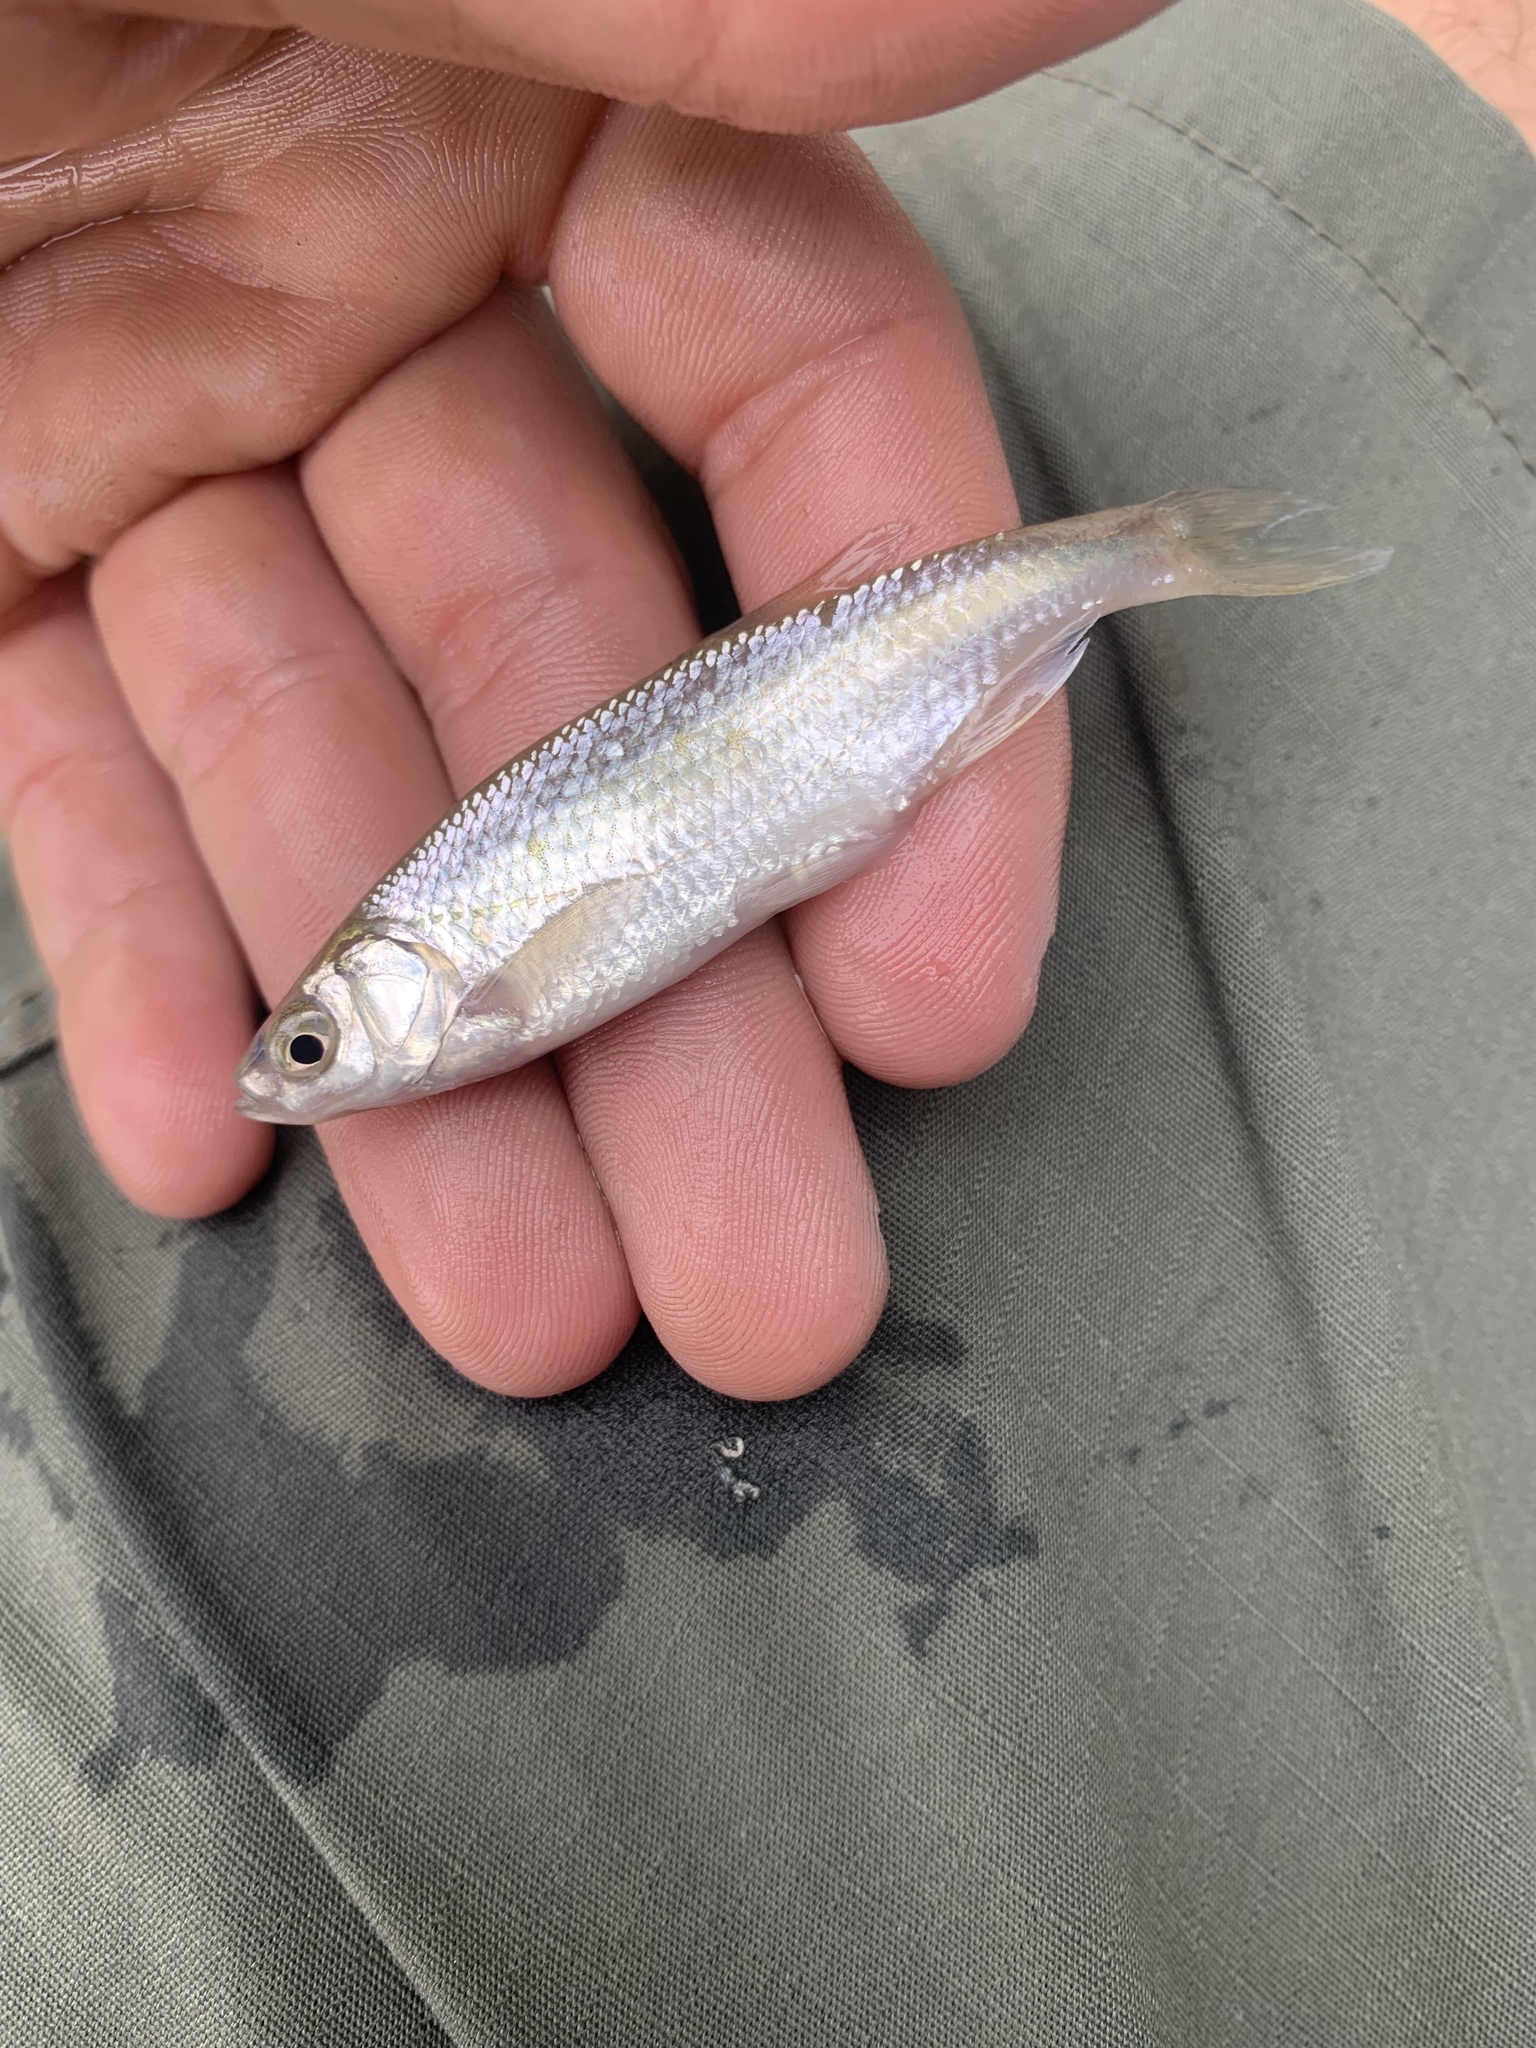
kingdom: Animalia
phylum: Chordata
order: Cypriniformes
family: Cyprinidae
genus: Notemigonus
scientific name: Notemigonus crysoleucas
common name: Golden shiner
